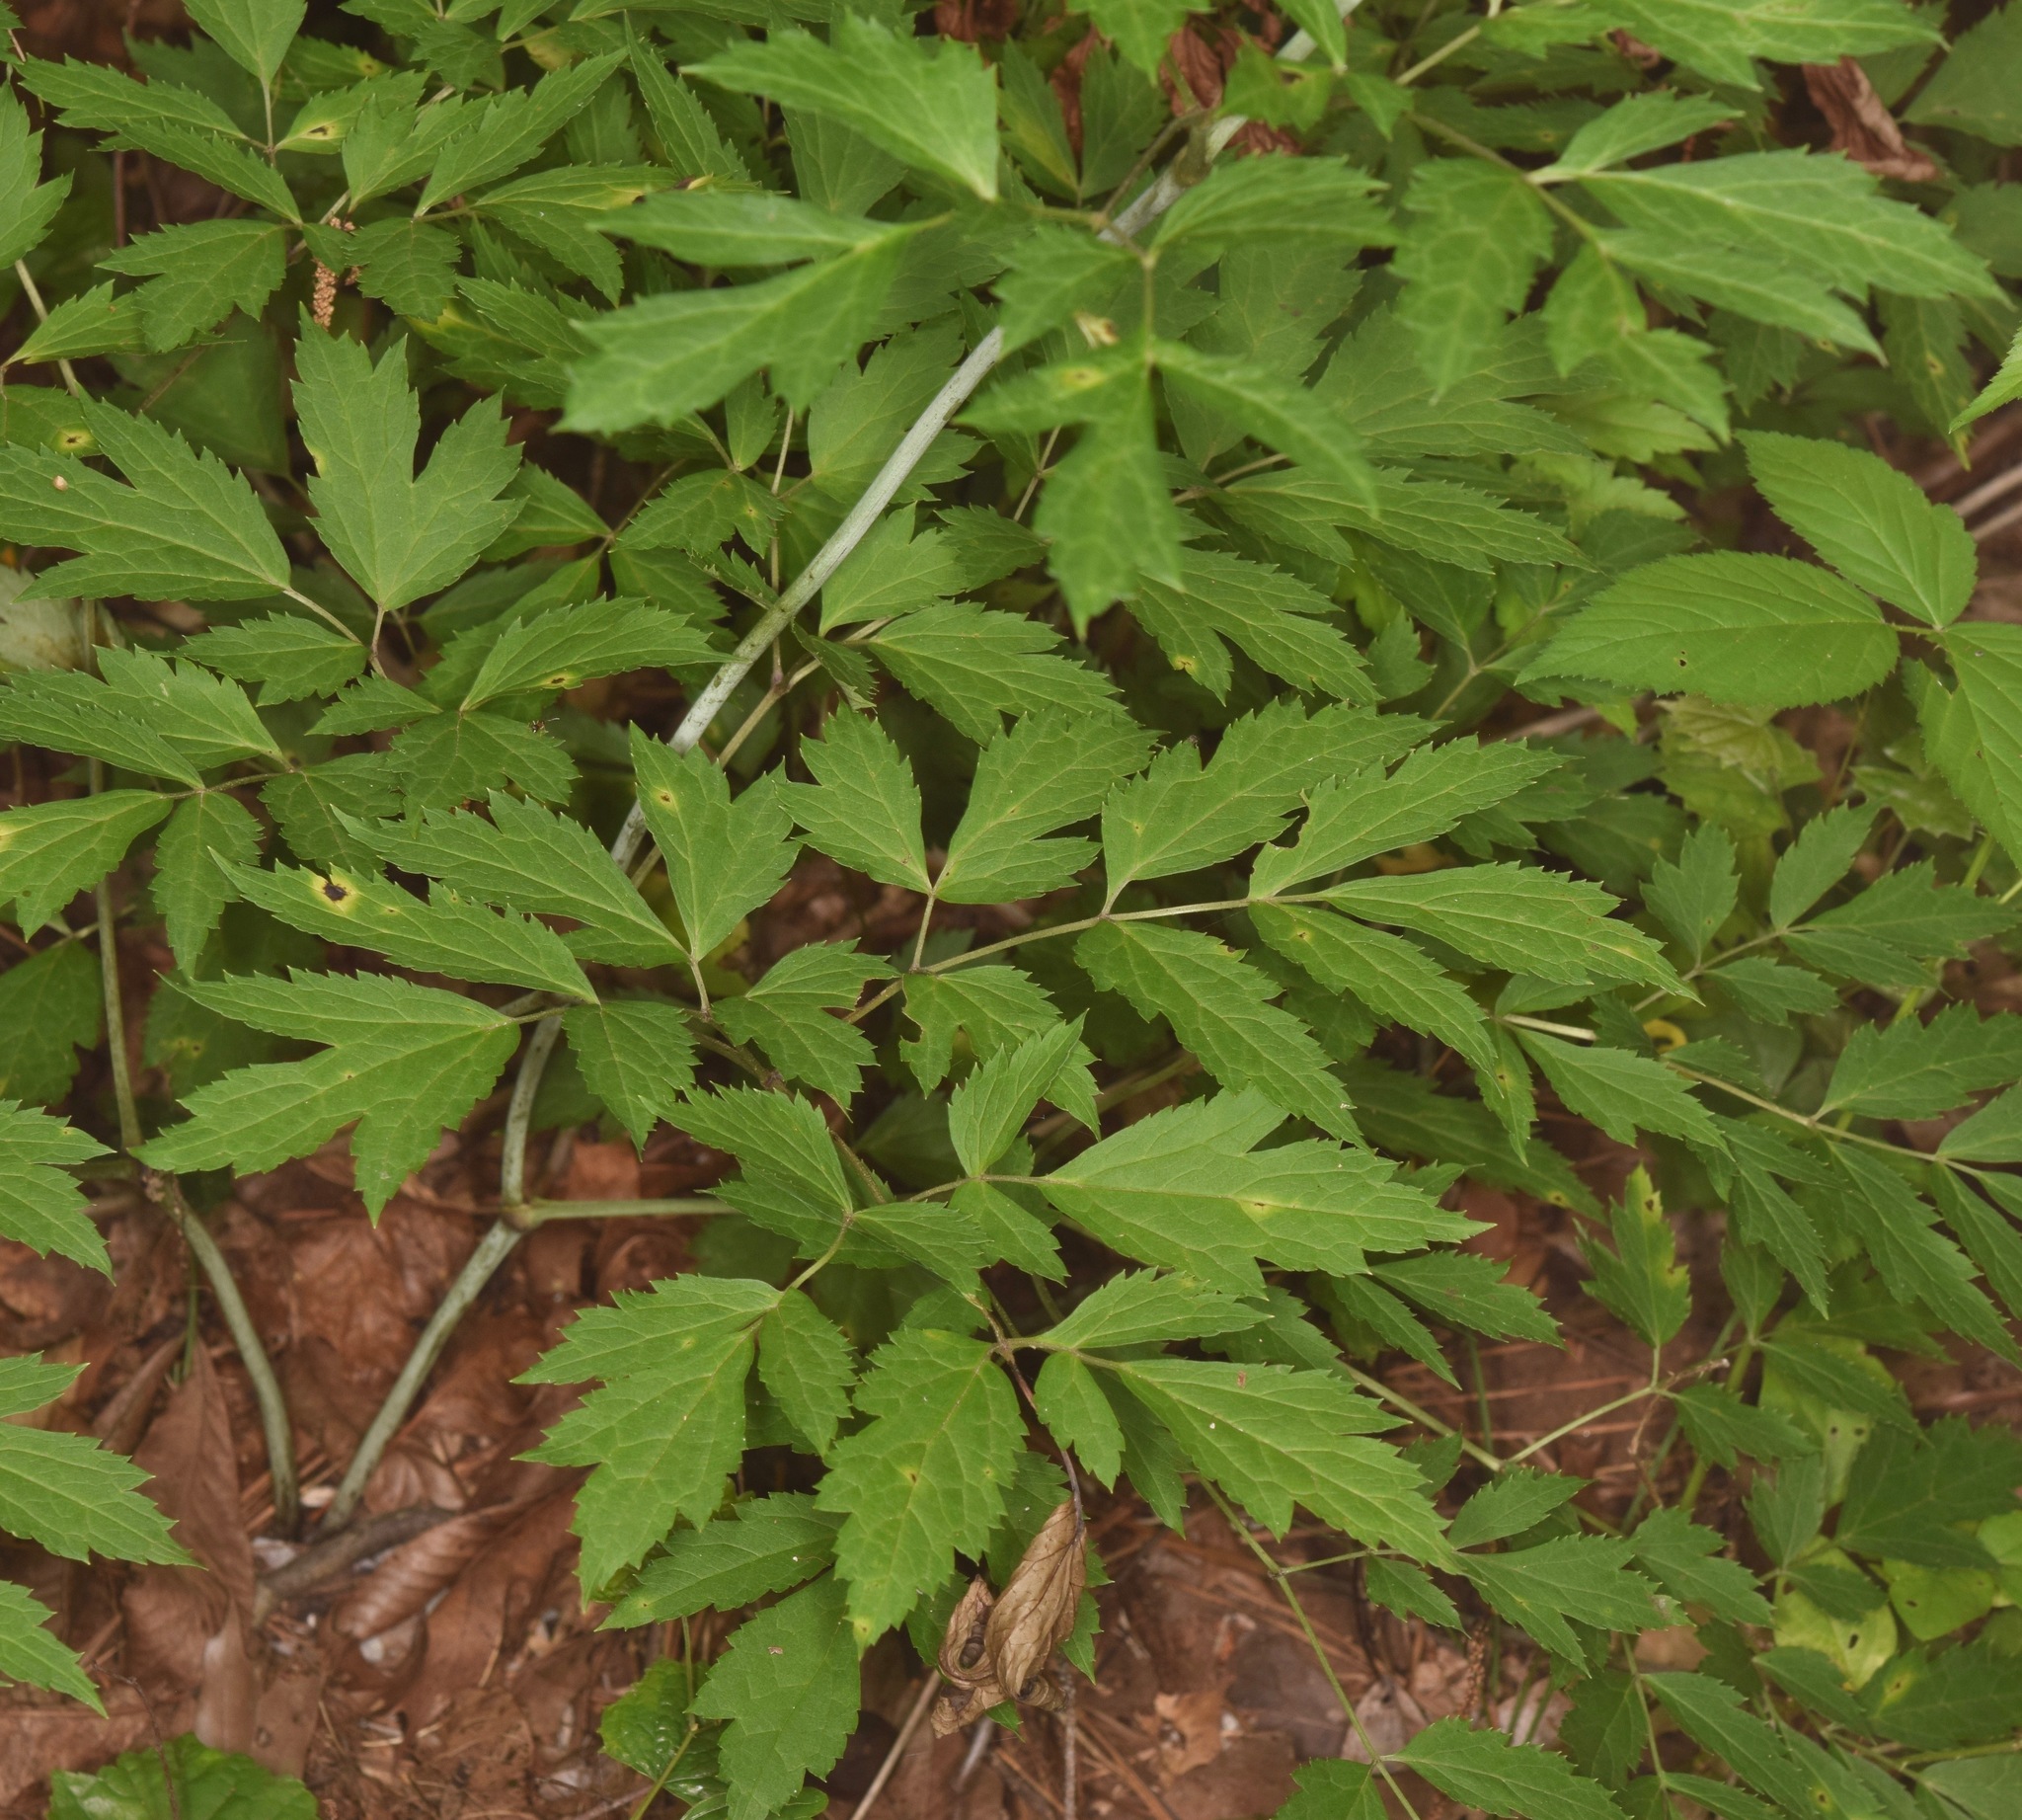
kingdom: Plantae
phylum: Tracheophyta
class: Magnoliopsida
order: Ranunculales
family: Ranunculaceae
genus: Actaea
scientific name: Actaea racemosa
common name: Black cohosh
